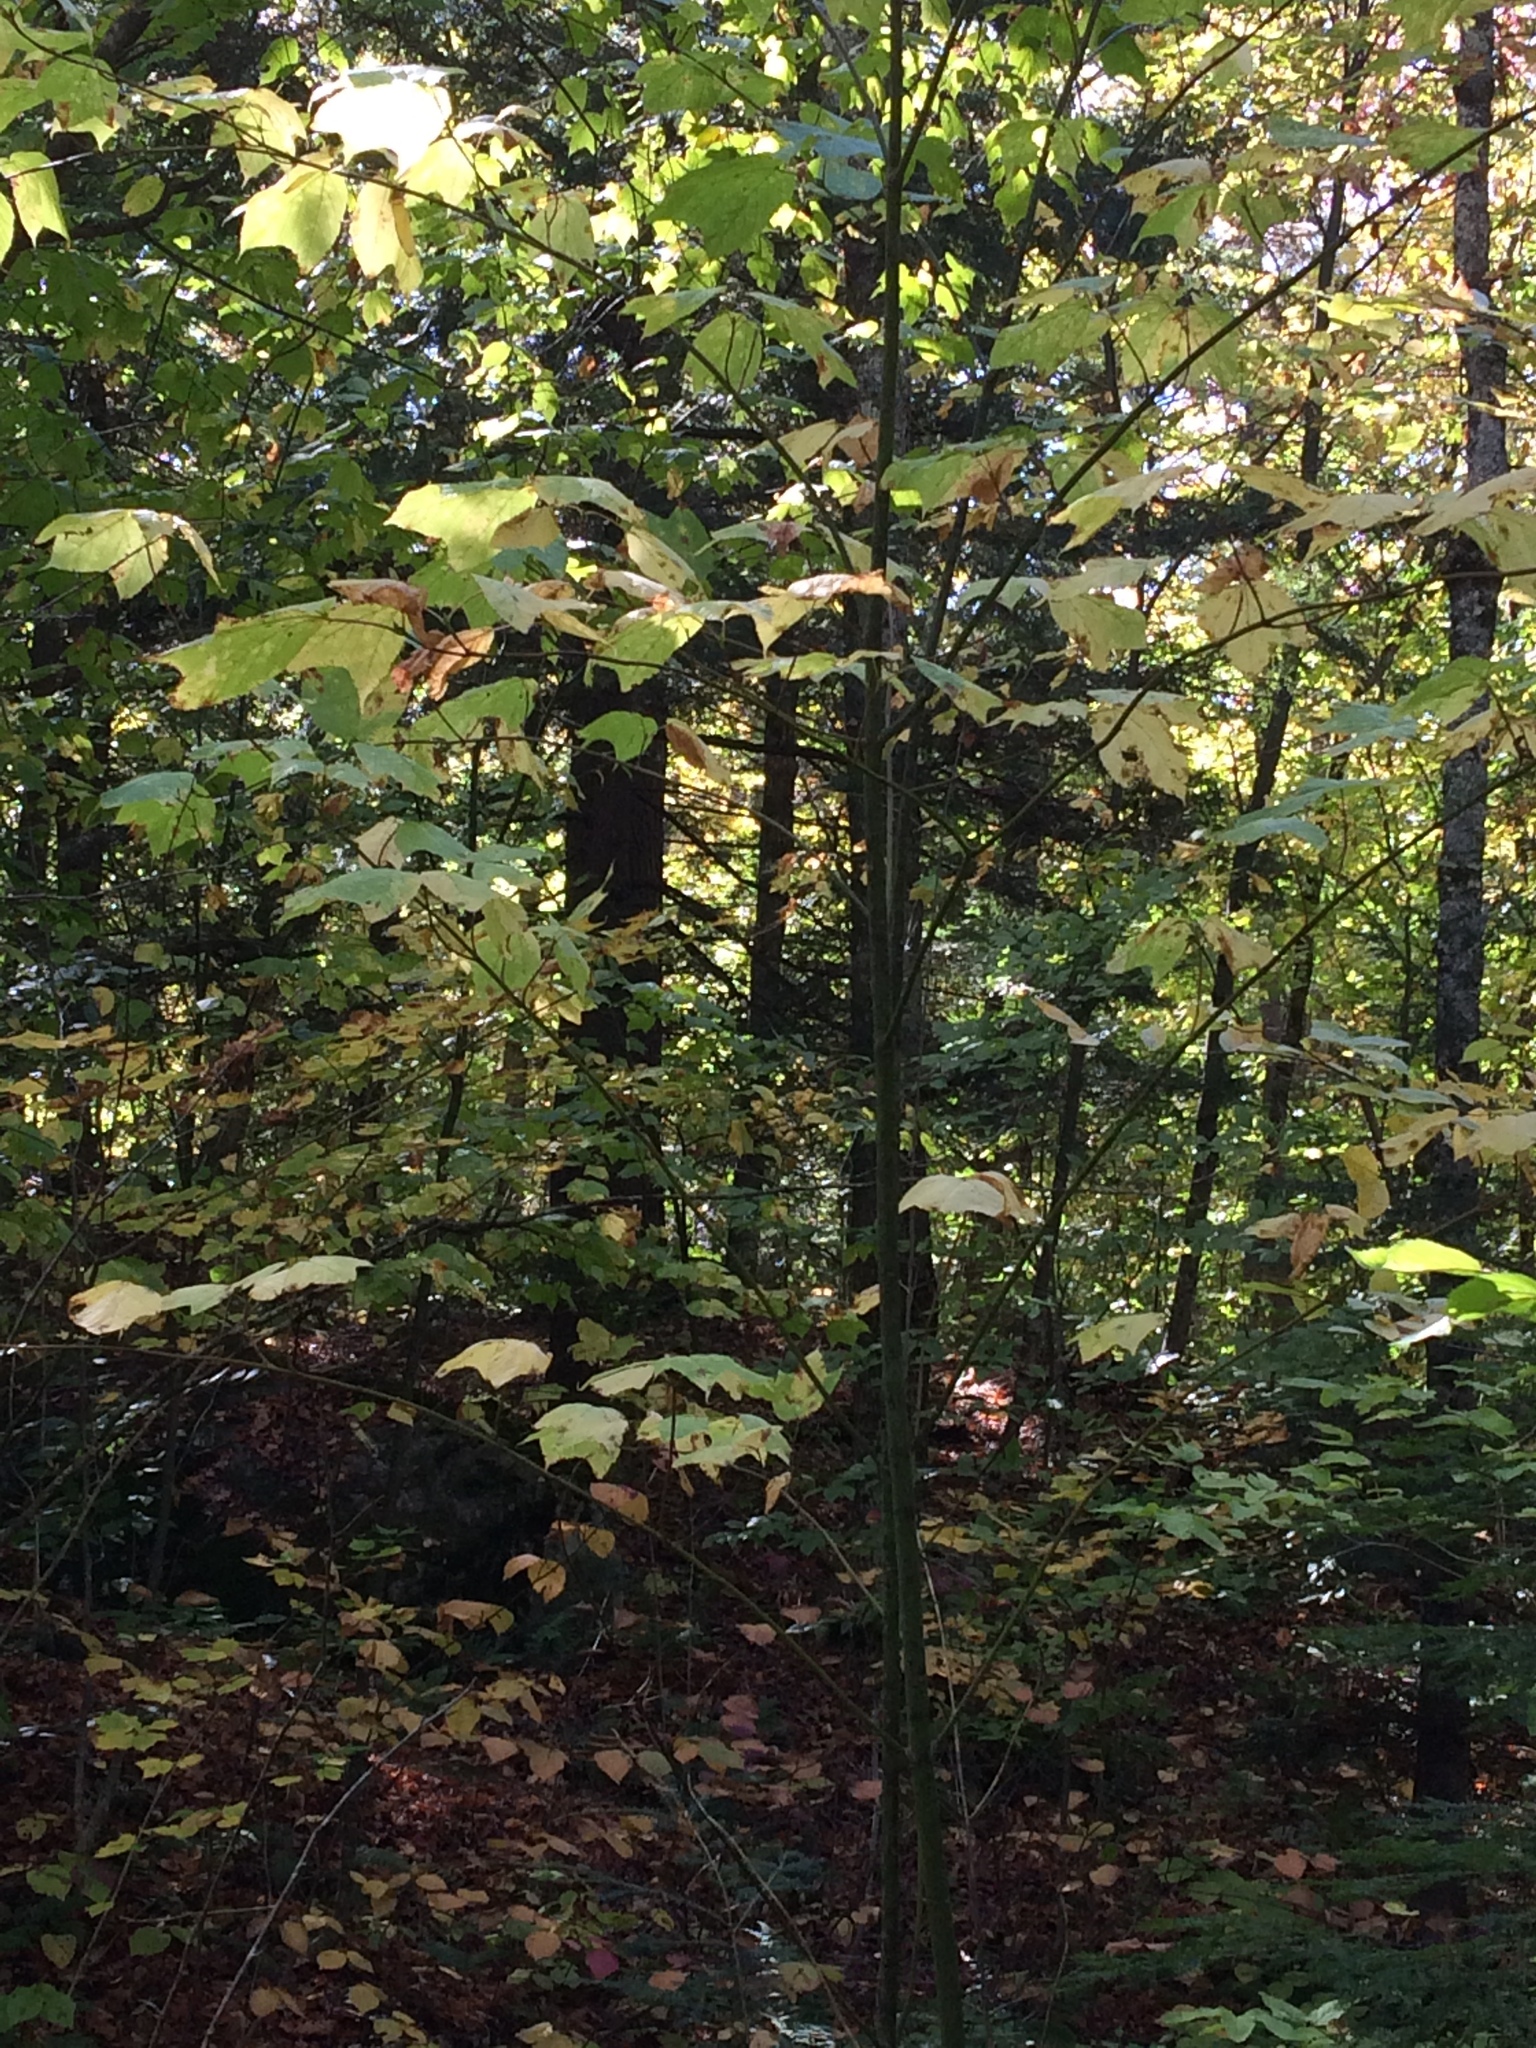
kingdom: Plantae
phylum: Tracheophyta
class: Magnoliopsida
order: Sapindales
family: Sapindaceae
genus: Acer
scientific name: Acer pensylvanicum
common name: Moosewood
